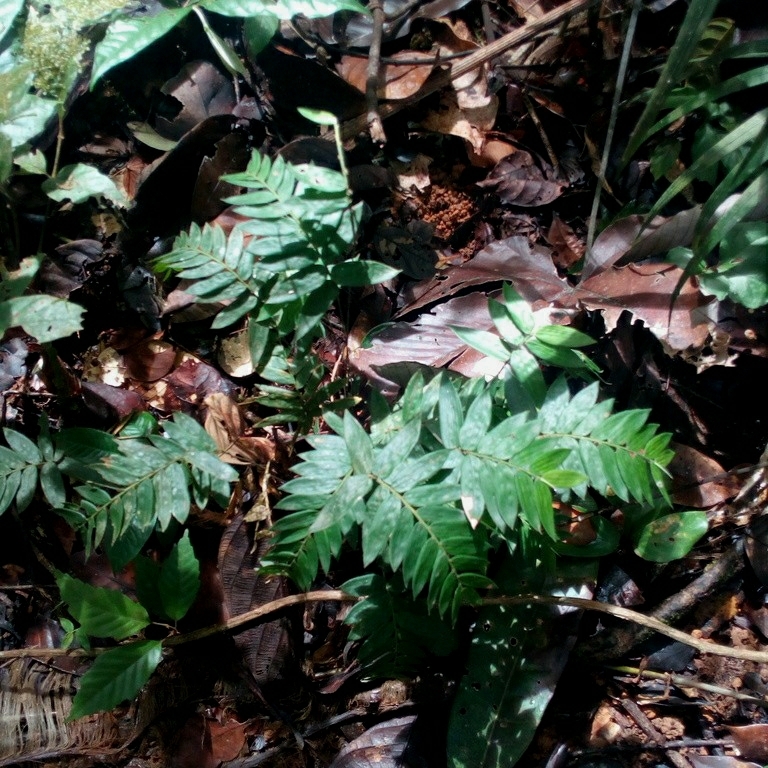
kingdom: Plantae
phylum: Tracheophyta
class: Liliopsida
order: Poales
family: Poaceae
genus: Piresia
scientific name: Piresia goeldii
